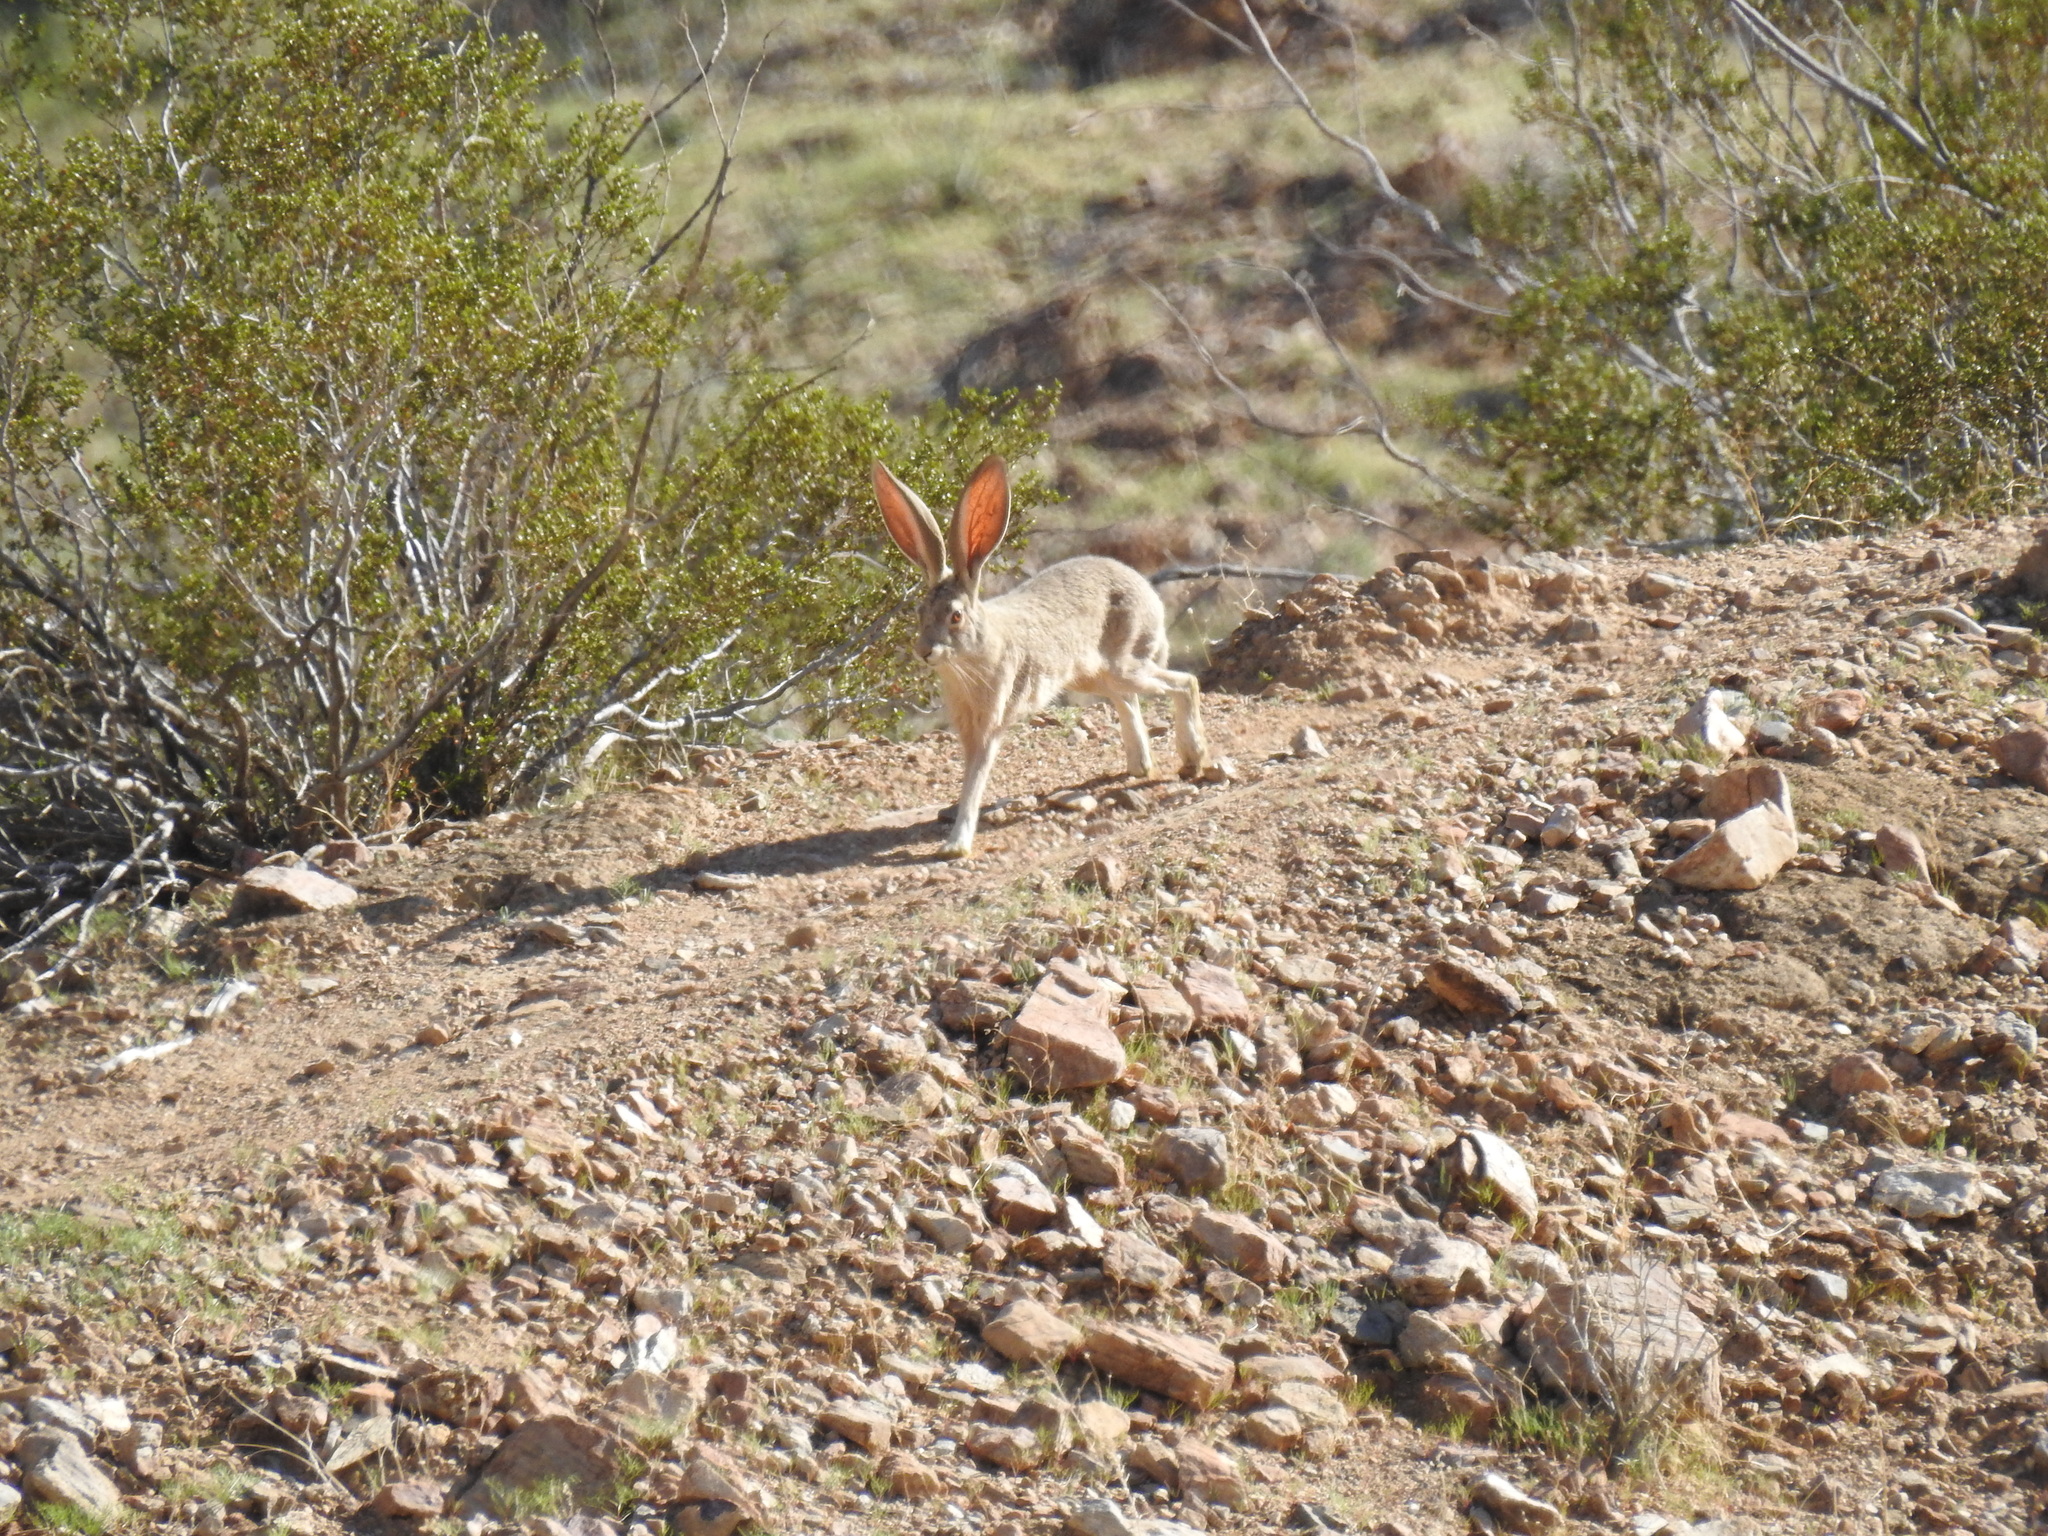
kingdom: Animalia
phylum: Chordata
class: Mammalia
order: Lagomorpha
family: Leporidae
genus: Lepus
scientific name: Lepus californicus
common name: Black-tailed jackrabbit
